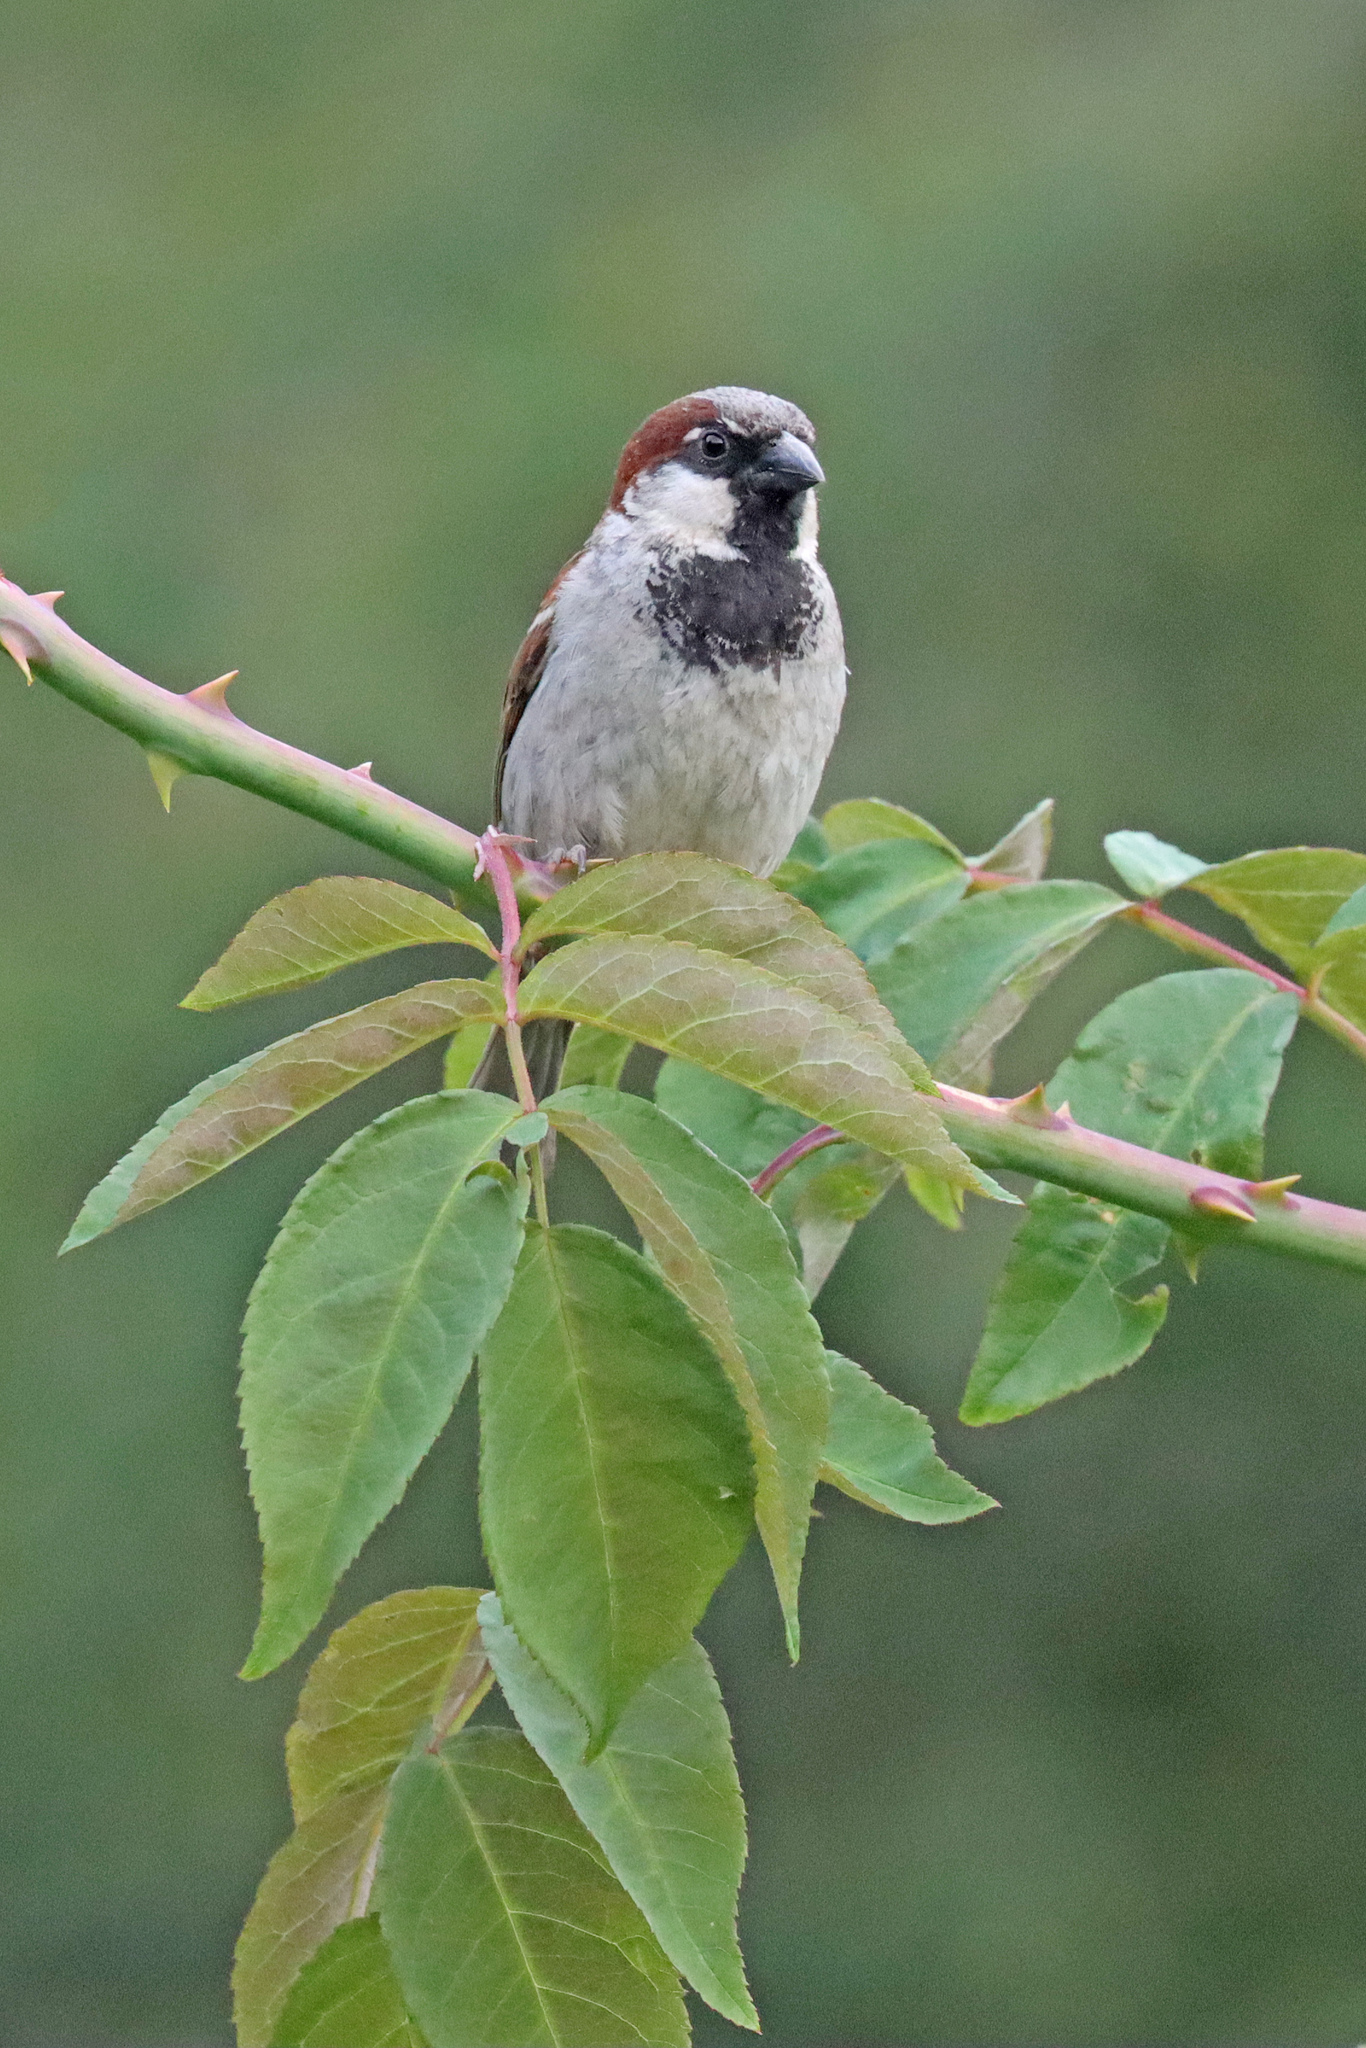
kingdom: Animalia
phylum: Chordata
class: Aves
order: Passeriformes
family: Passeridae
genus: Passer
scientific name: Passer domesticus
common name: House sparrow
